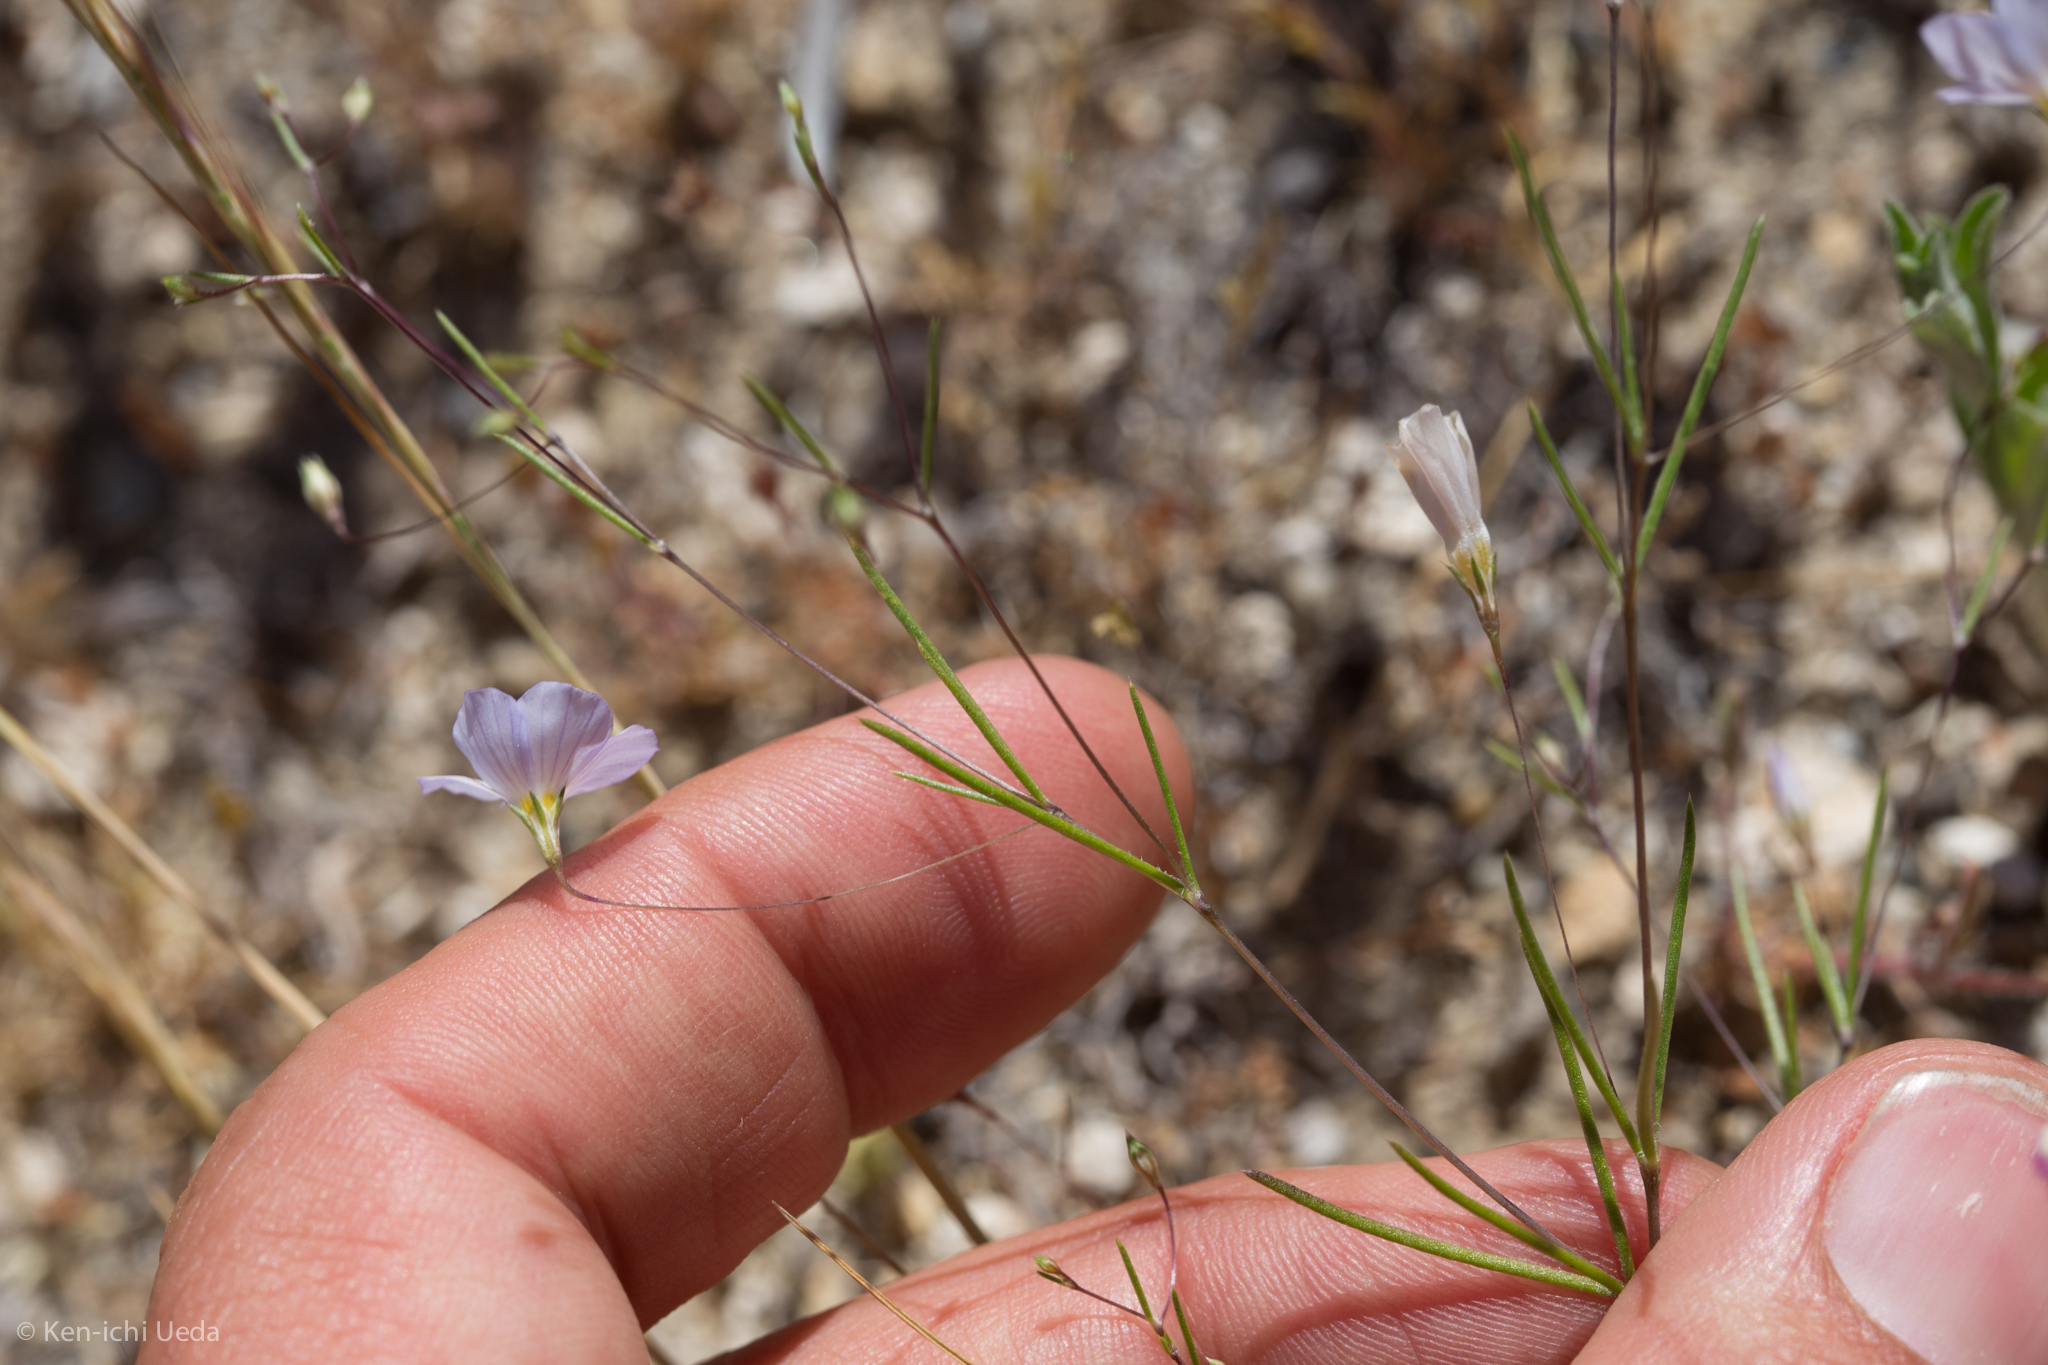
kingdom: Plantae
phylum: Tracheophyta
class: Magnoliopsida
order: Ericales
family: Polemoniaceae
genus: Leptosiphon
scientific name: Leptosiphon liniflorus
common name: Narrowflower flaxflower
